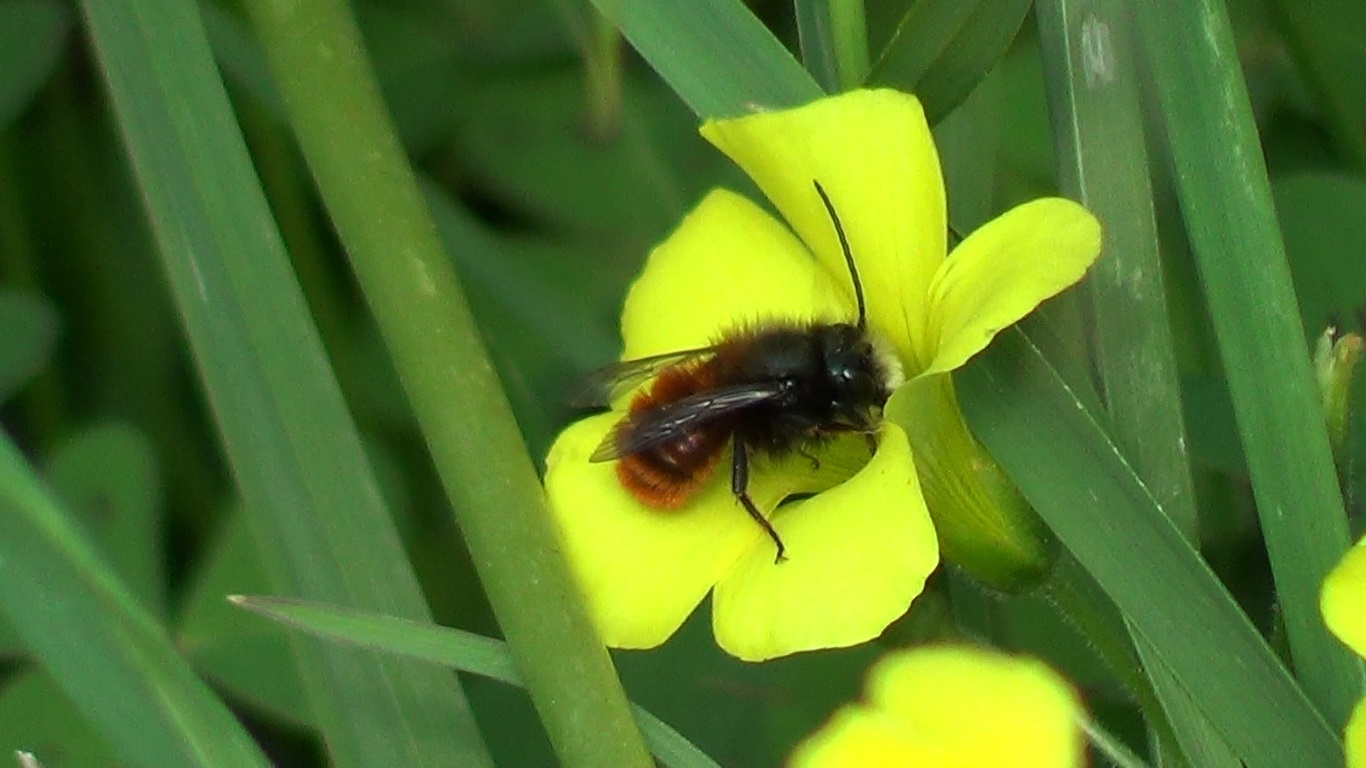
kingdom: Animalia
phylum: Arthropoda
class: Insecta
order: Hymenoptera
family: Megachilidae
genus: Osmia
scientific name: Osmia cornuta
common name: Mason bee
